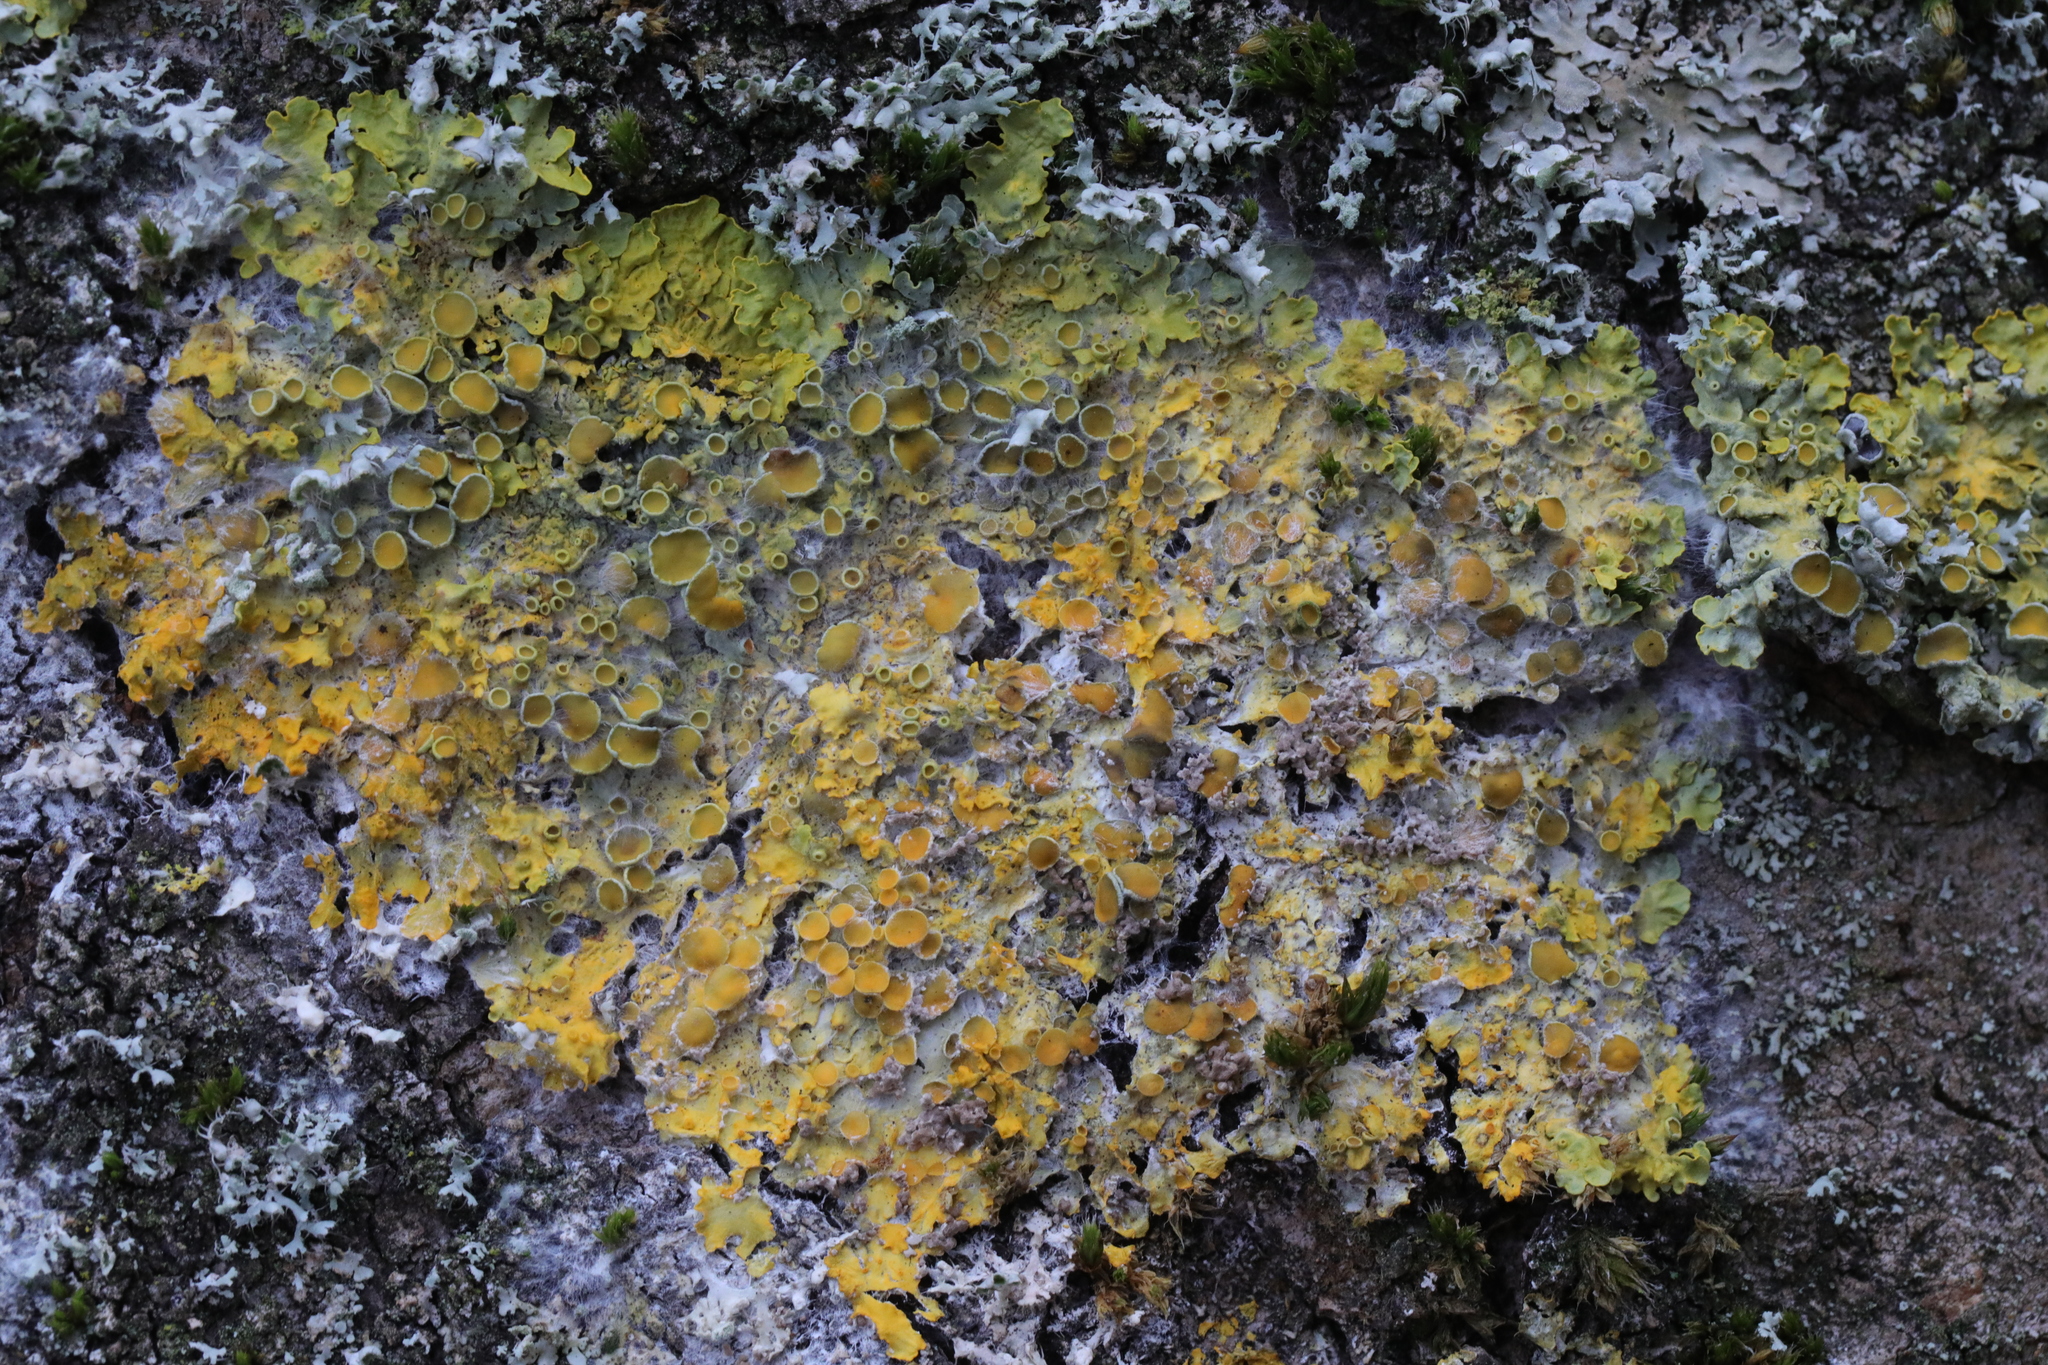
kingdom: Fungi
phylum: Ascomycota
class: Lecanoromycetes
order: Teloschistales
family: Teloschistaceae
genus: Xanthoria
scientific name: Xanthoria parietina
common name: Common orange lichen
